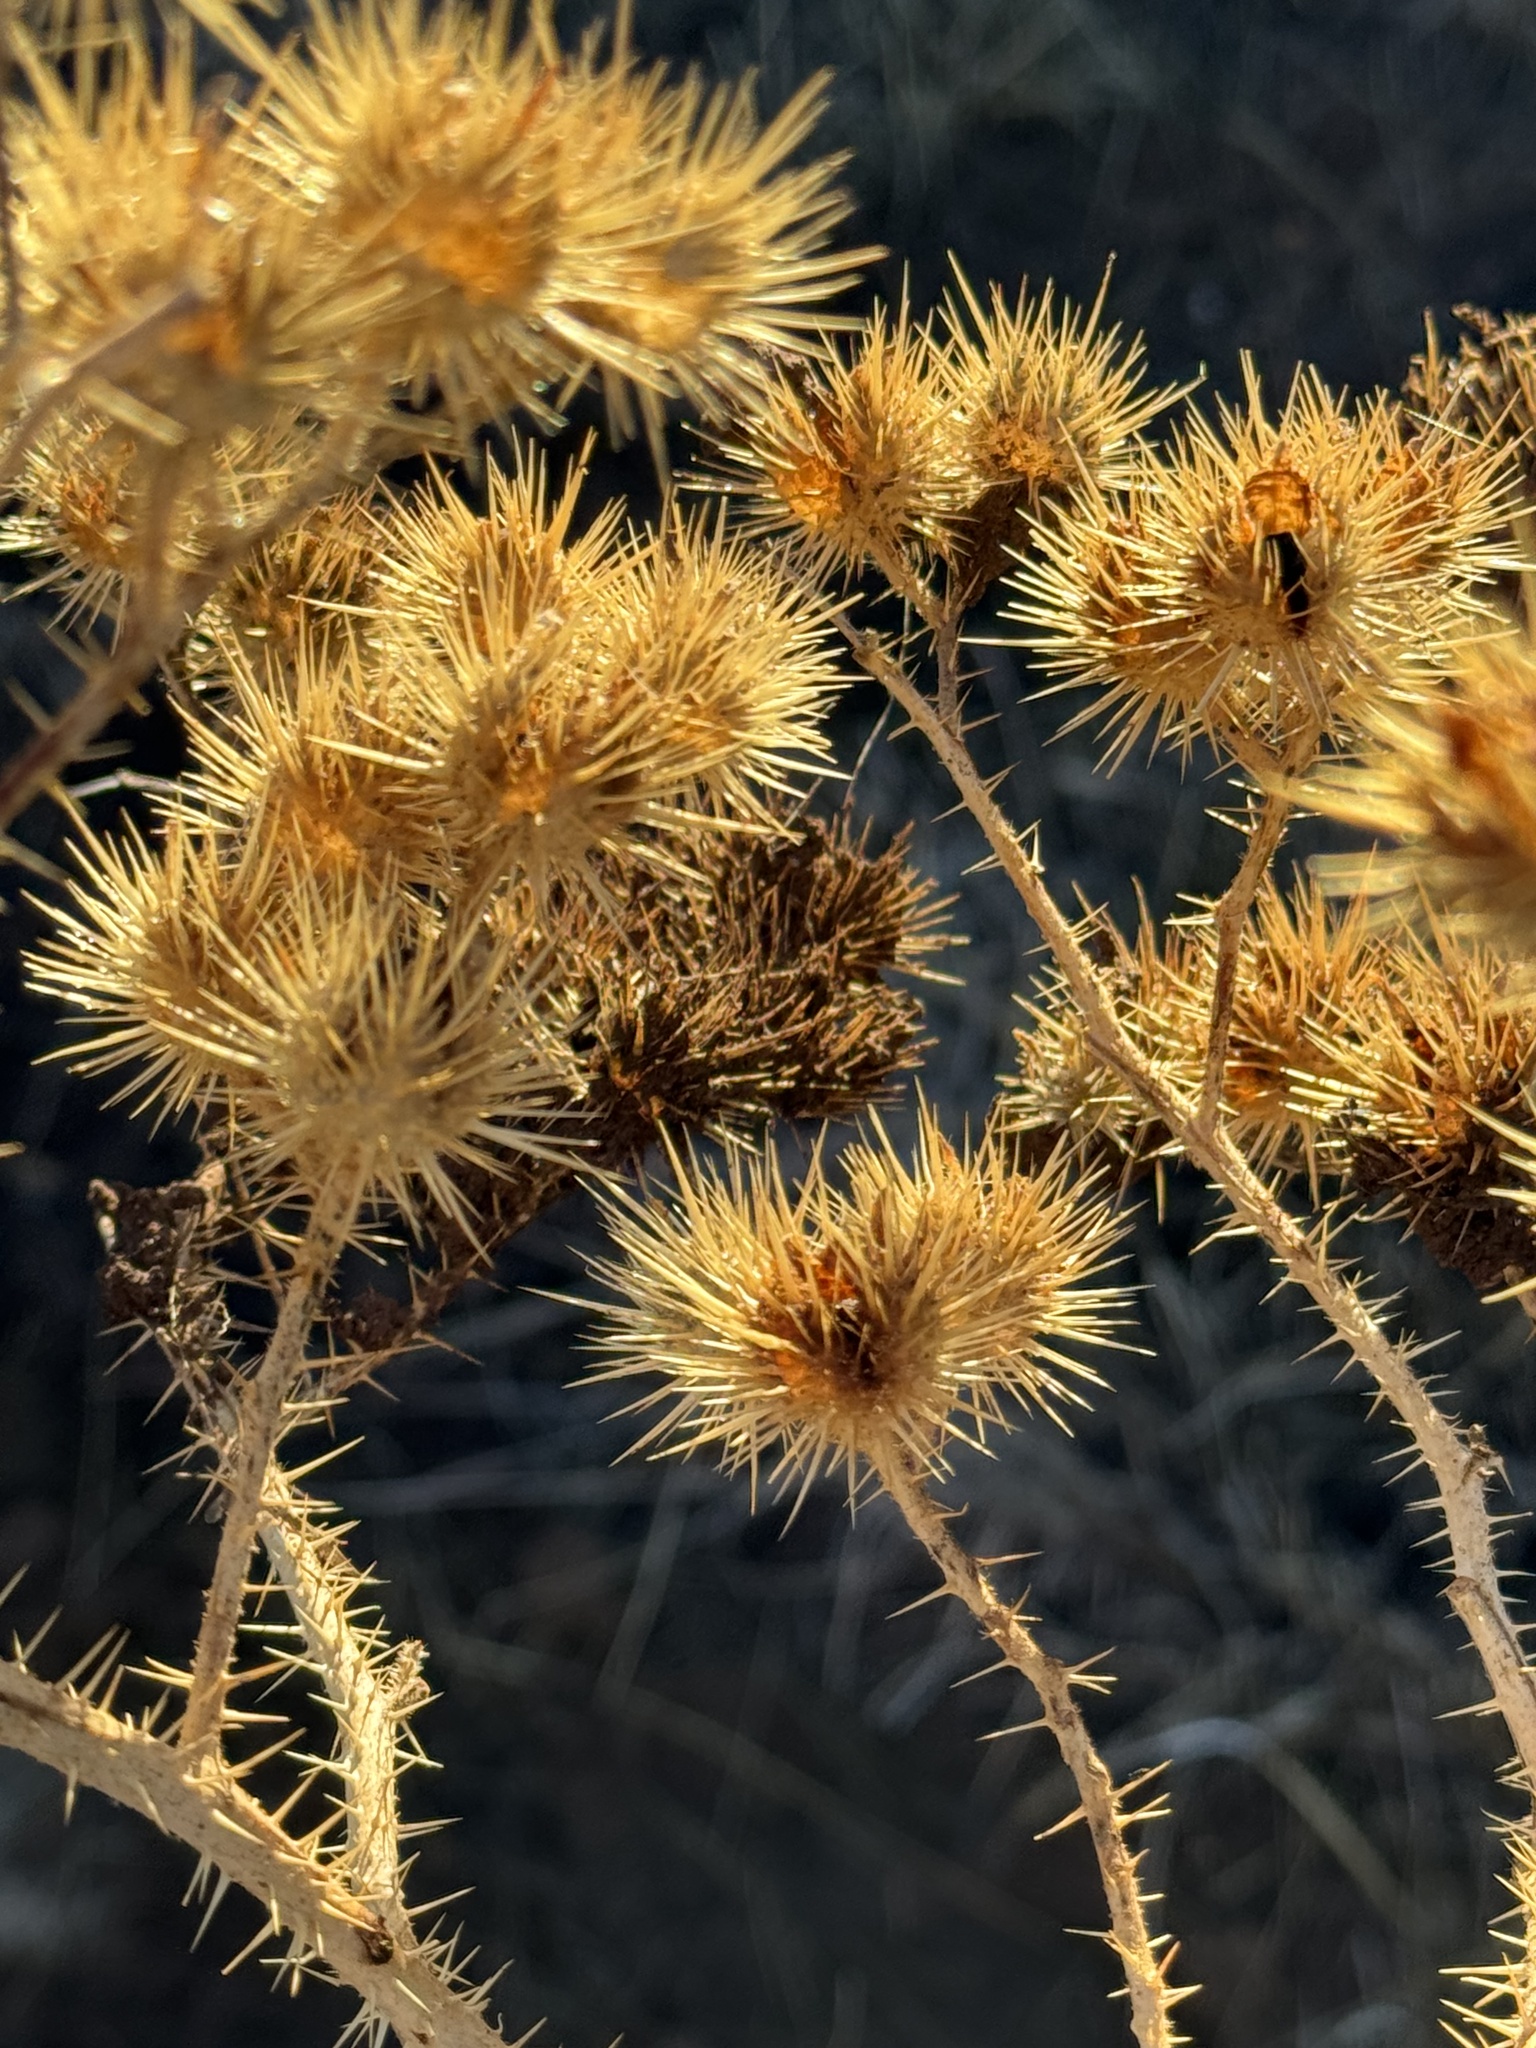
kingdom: Plantae
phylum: Tracheophyta
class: Magnoliopsida
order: Solanales
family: Solanaceae
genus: Solanum
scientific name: Solanum angustifolium
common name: Buffalobur nightshade
